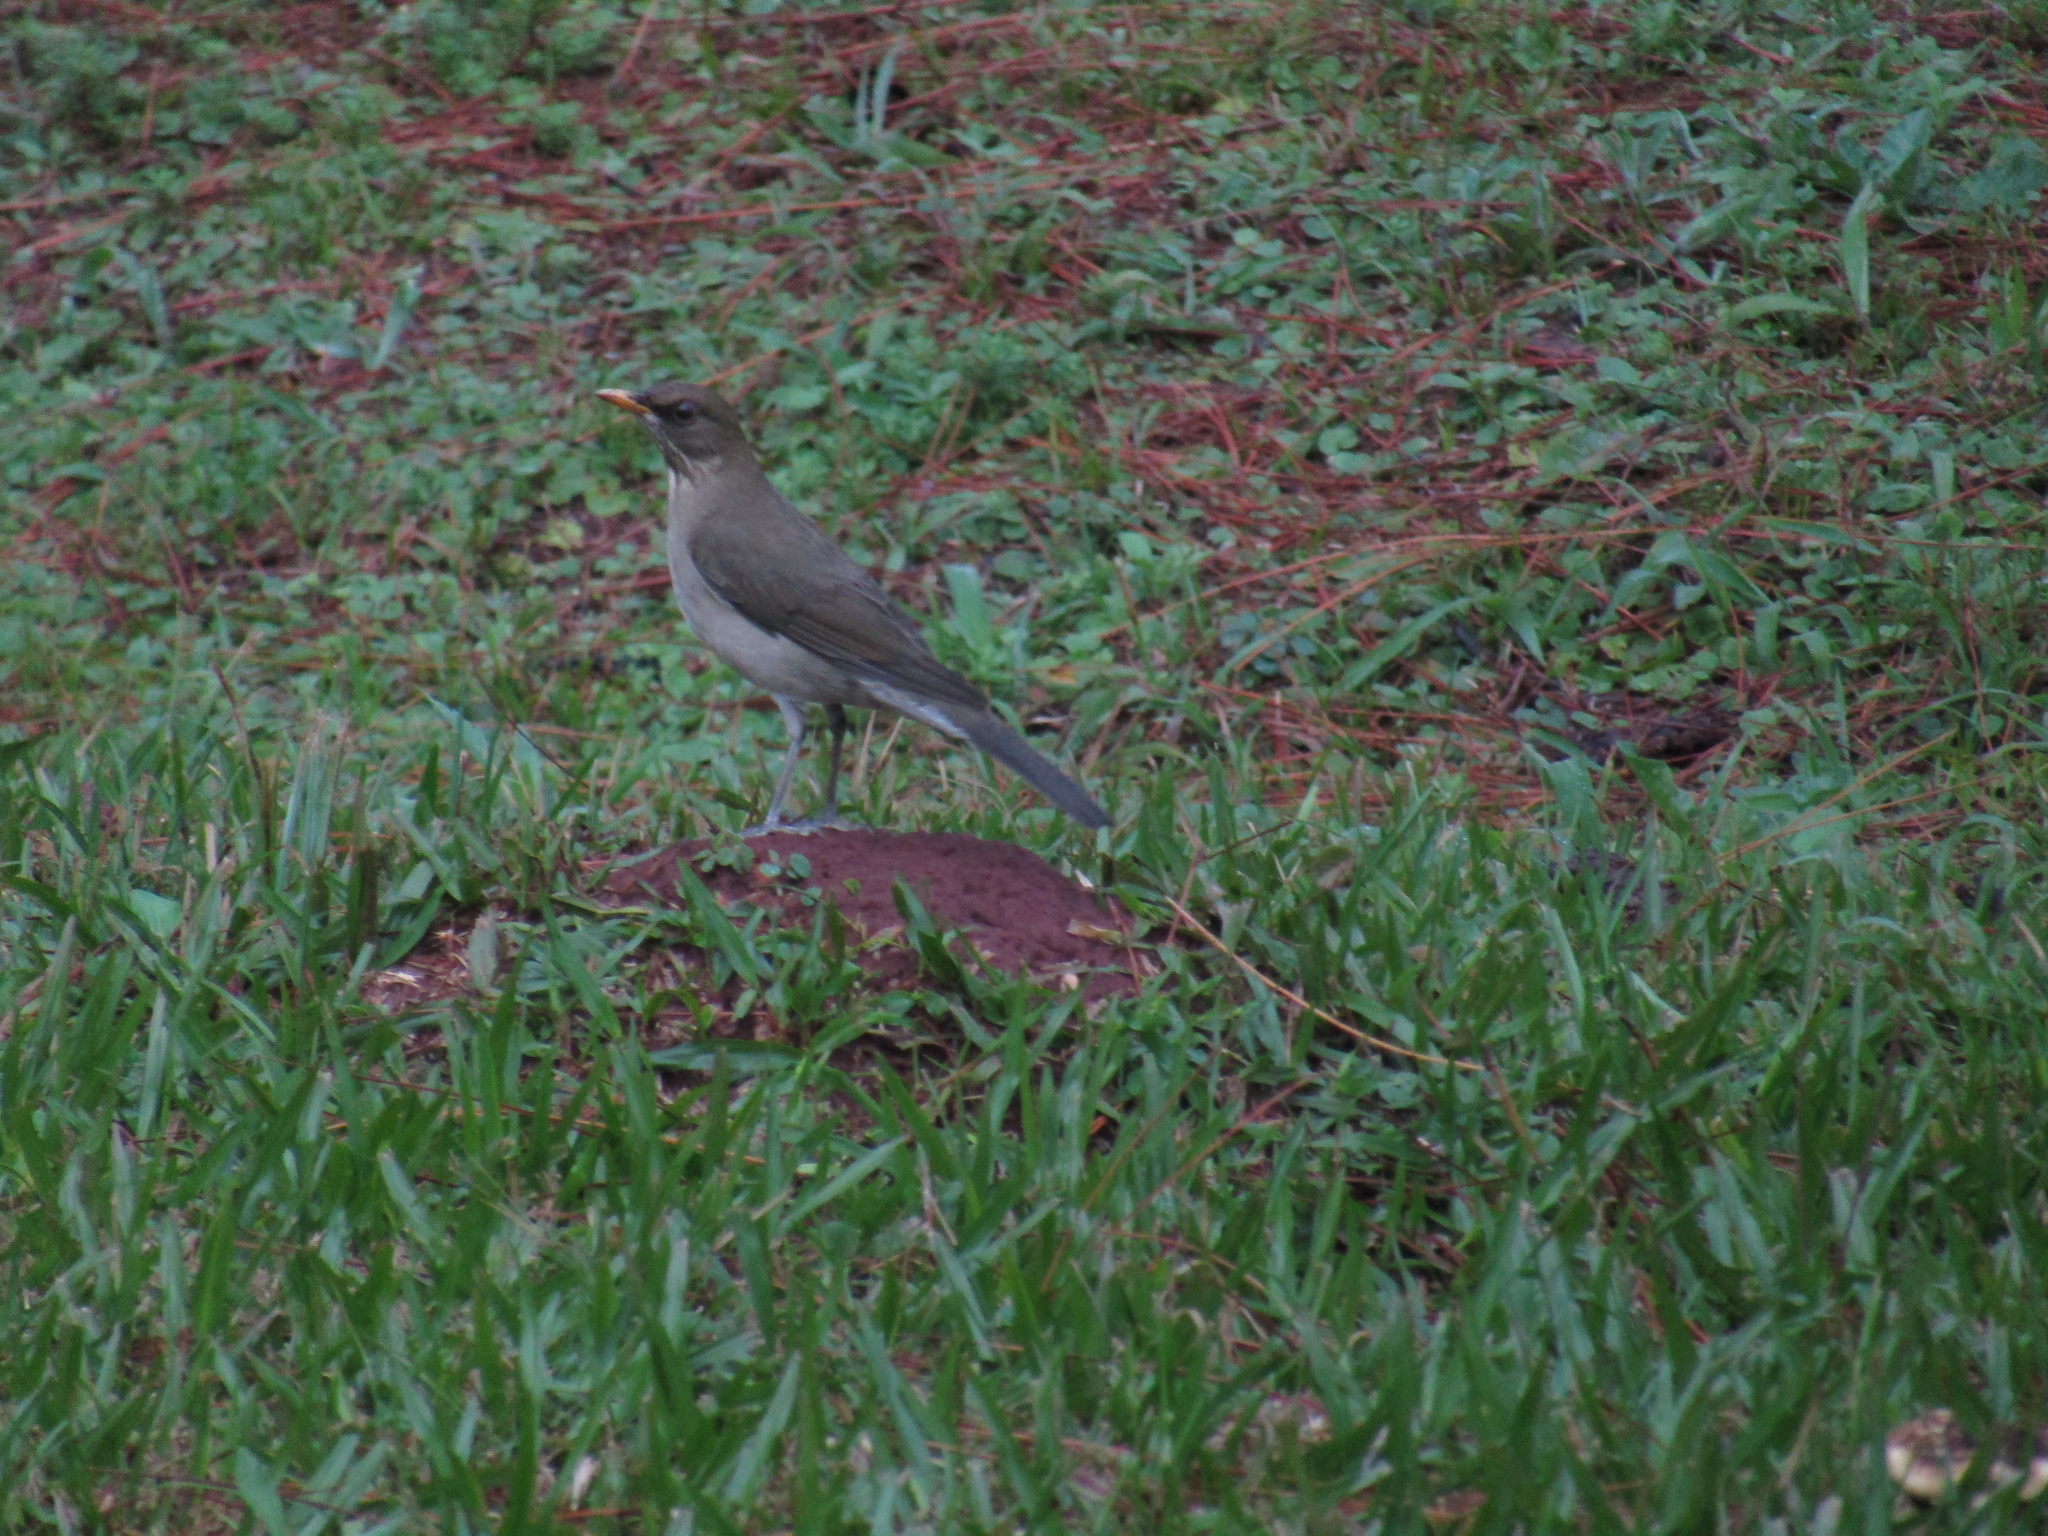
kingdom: Animalia
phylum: Chordata
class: Aves
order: Passeriformes
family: Turdidae
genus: Turdus
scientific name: Turdus amaurochalinus
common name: Creamy-bellied thrush
